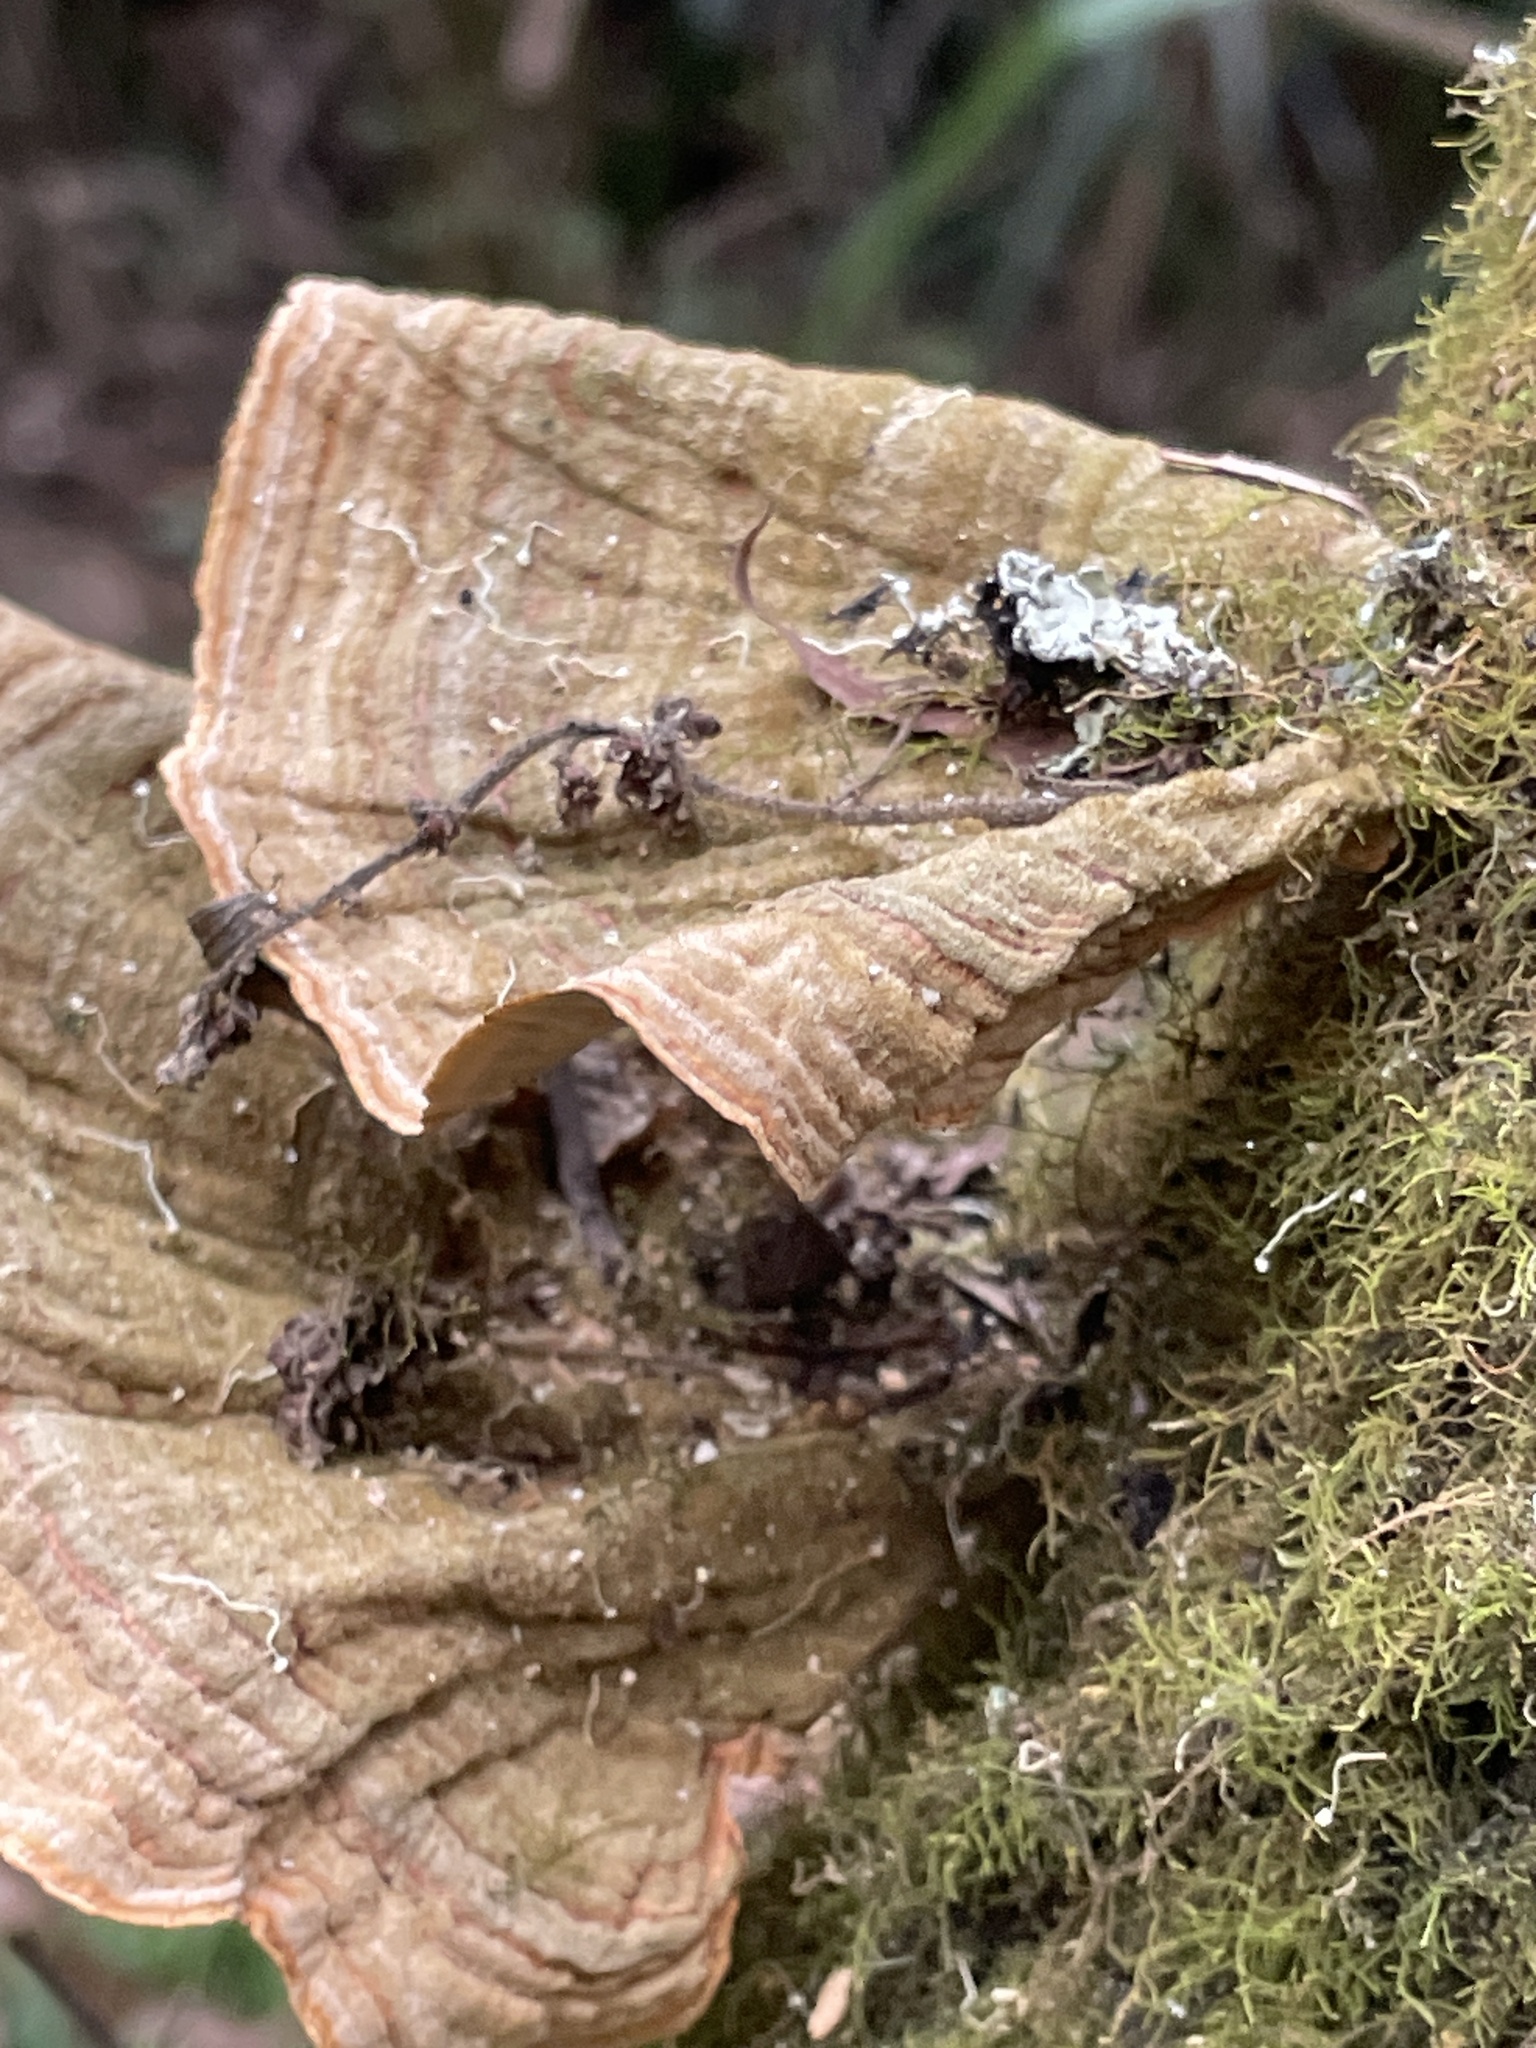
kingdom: Fungi
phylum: Basidiomycota
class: Agaricomycetes
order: Russulales
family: Stereaceae
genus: Stereum
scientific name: Stereum ostrea
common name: False turkeytail
